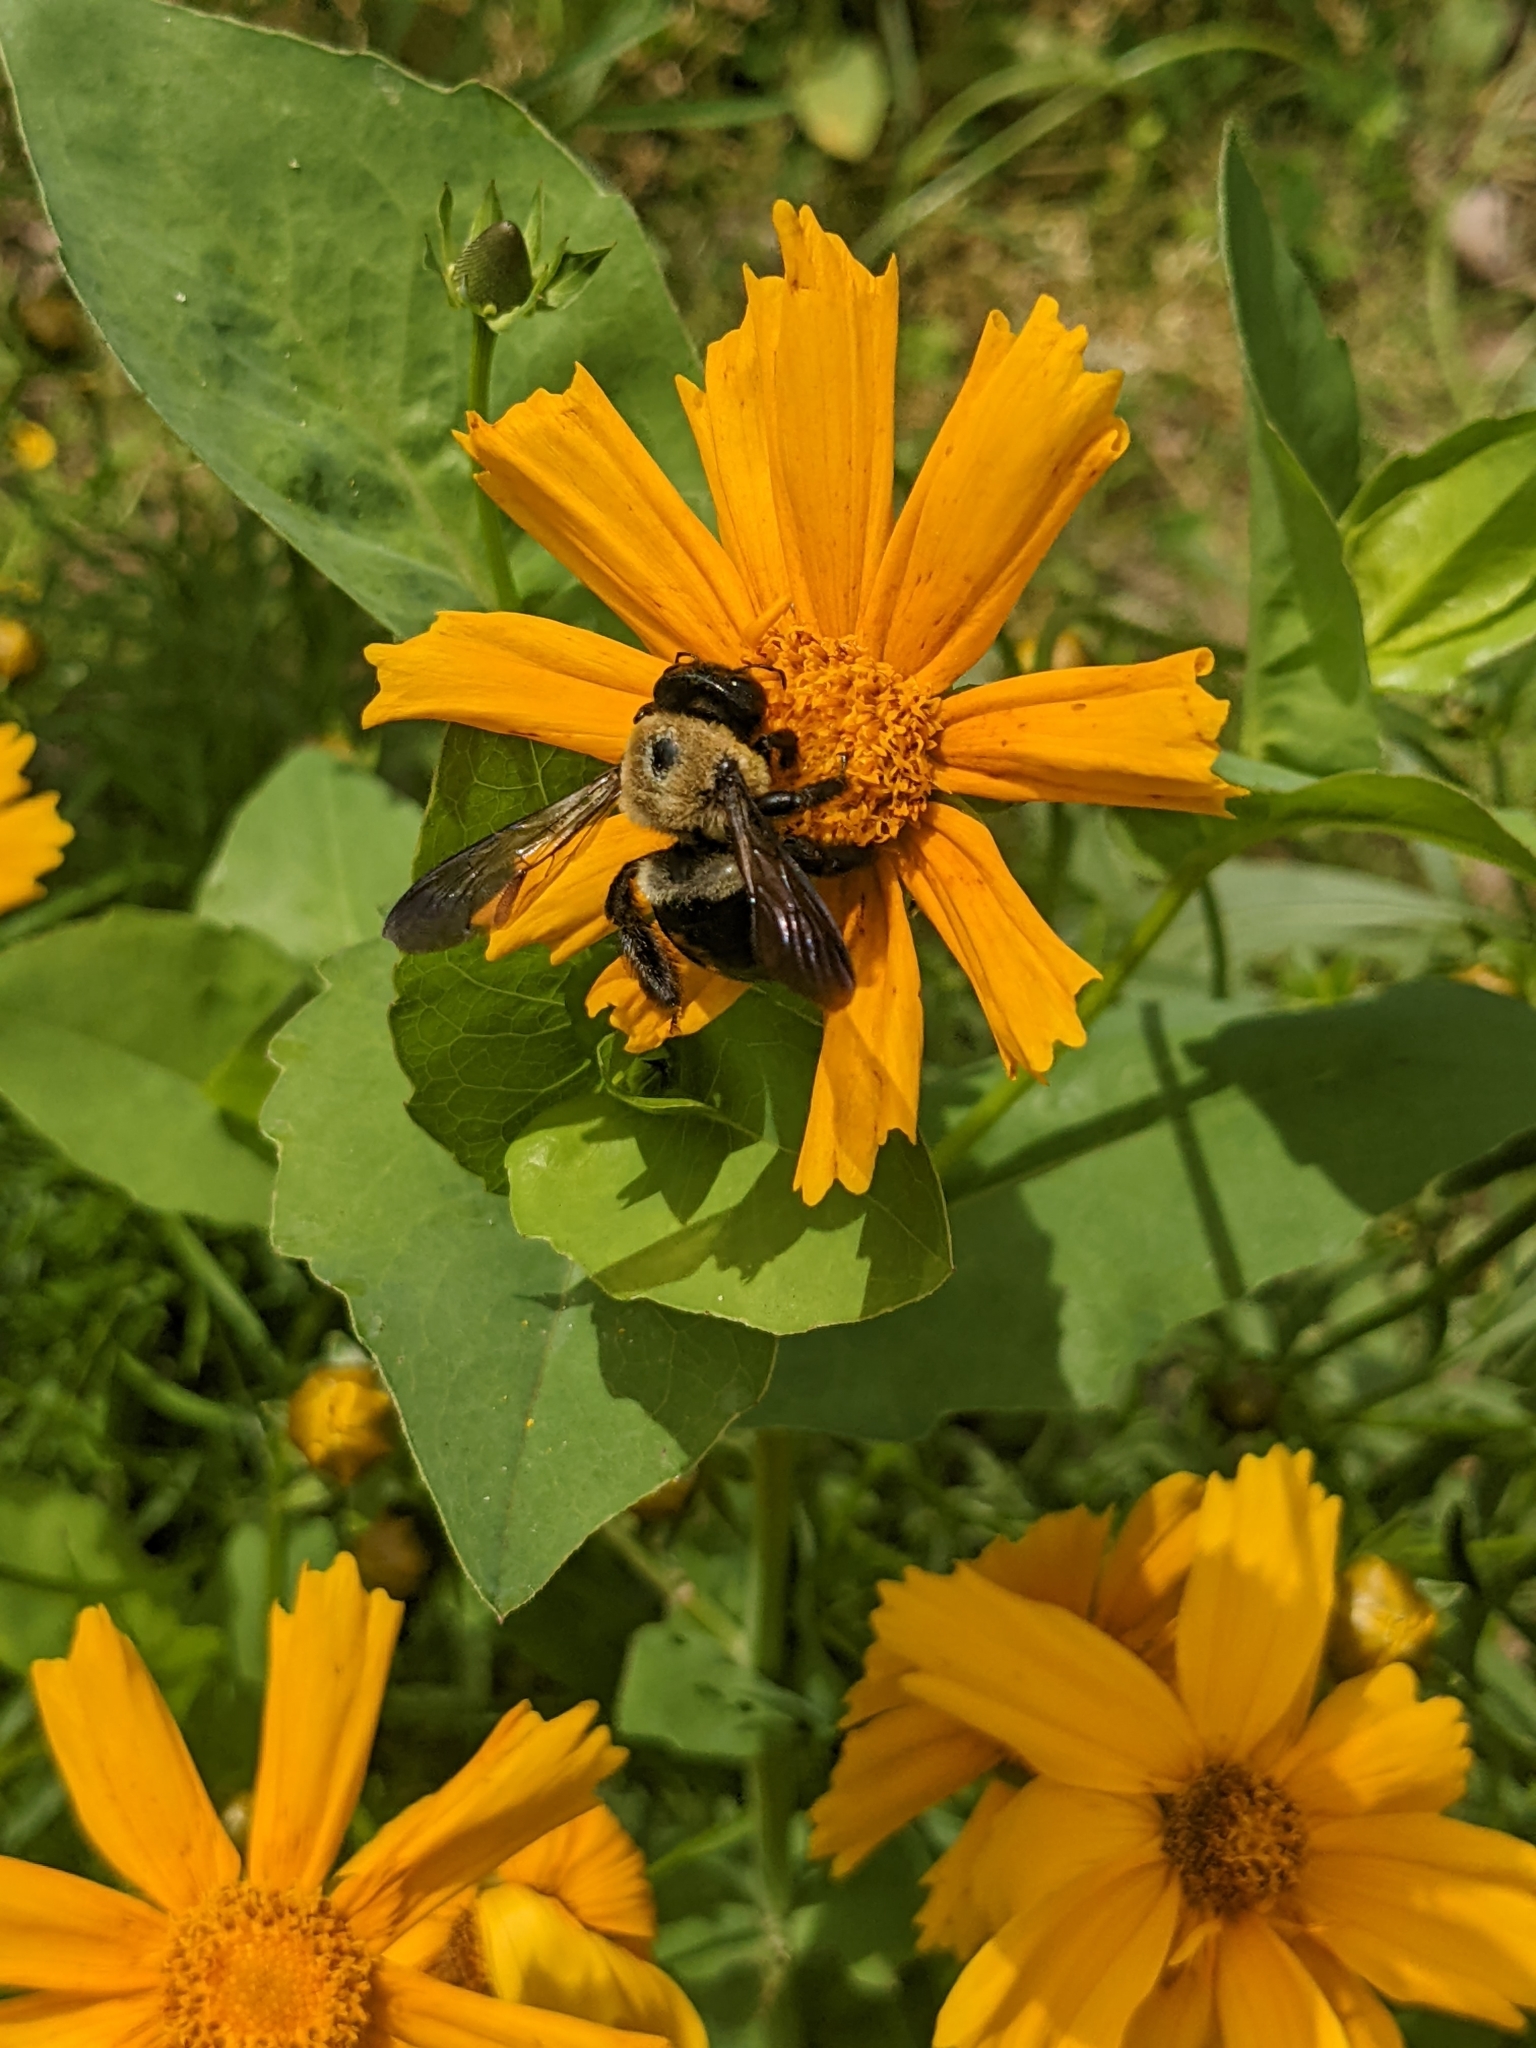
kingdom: Animalia
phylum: Arthropoda
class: Insecta
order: Hymenoptera
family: Apidae
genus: Xylocopa
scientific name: Xylocopa virginica
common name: Carpenter bee
